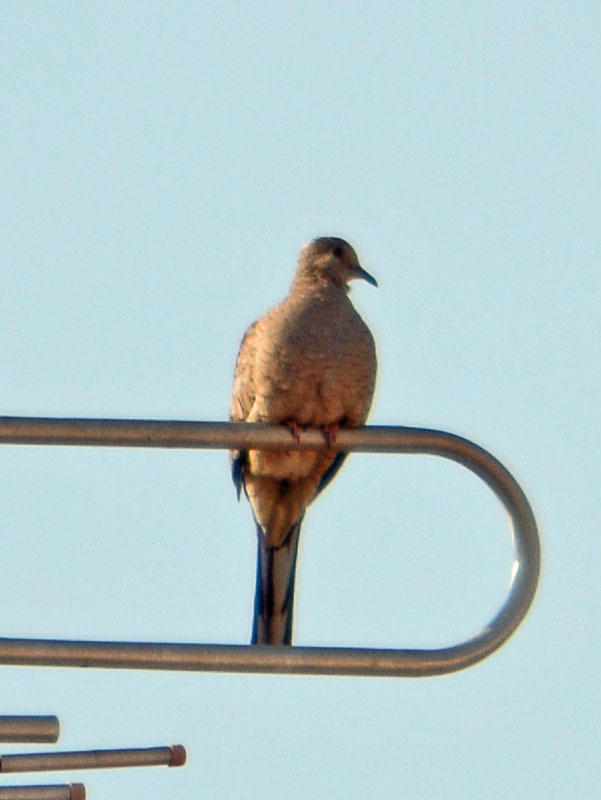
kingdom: Animalia
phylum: Chordata
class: Aves
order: Columbiformes
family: Columbidae
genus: Columbina
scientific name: Columbina inca
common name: Inca dove
